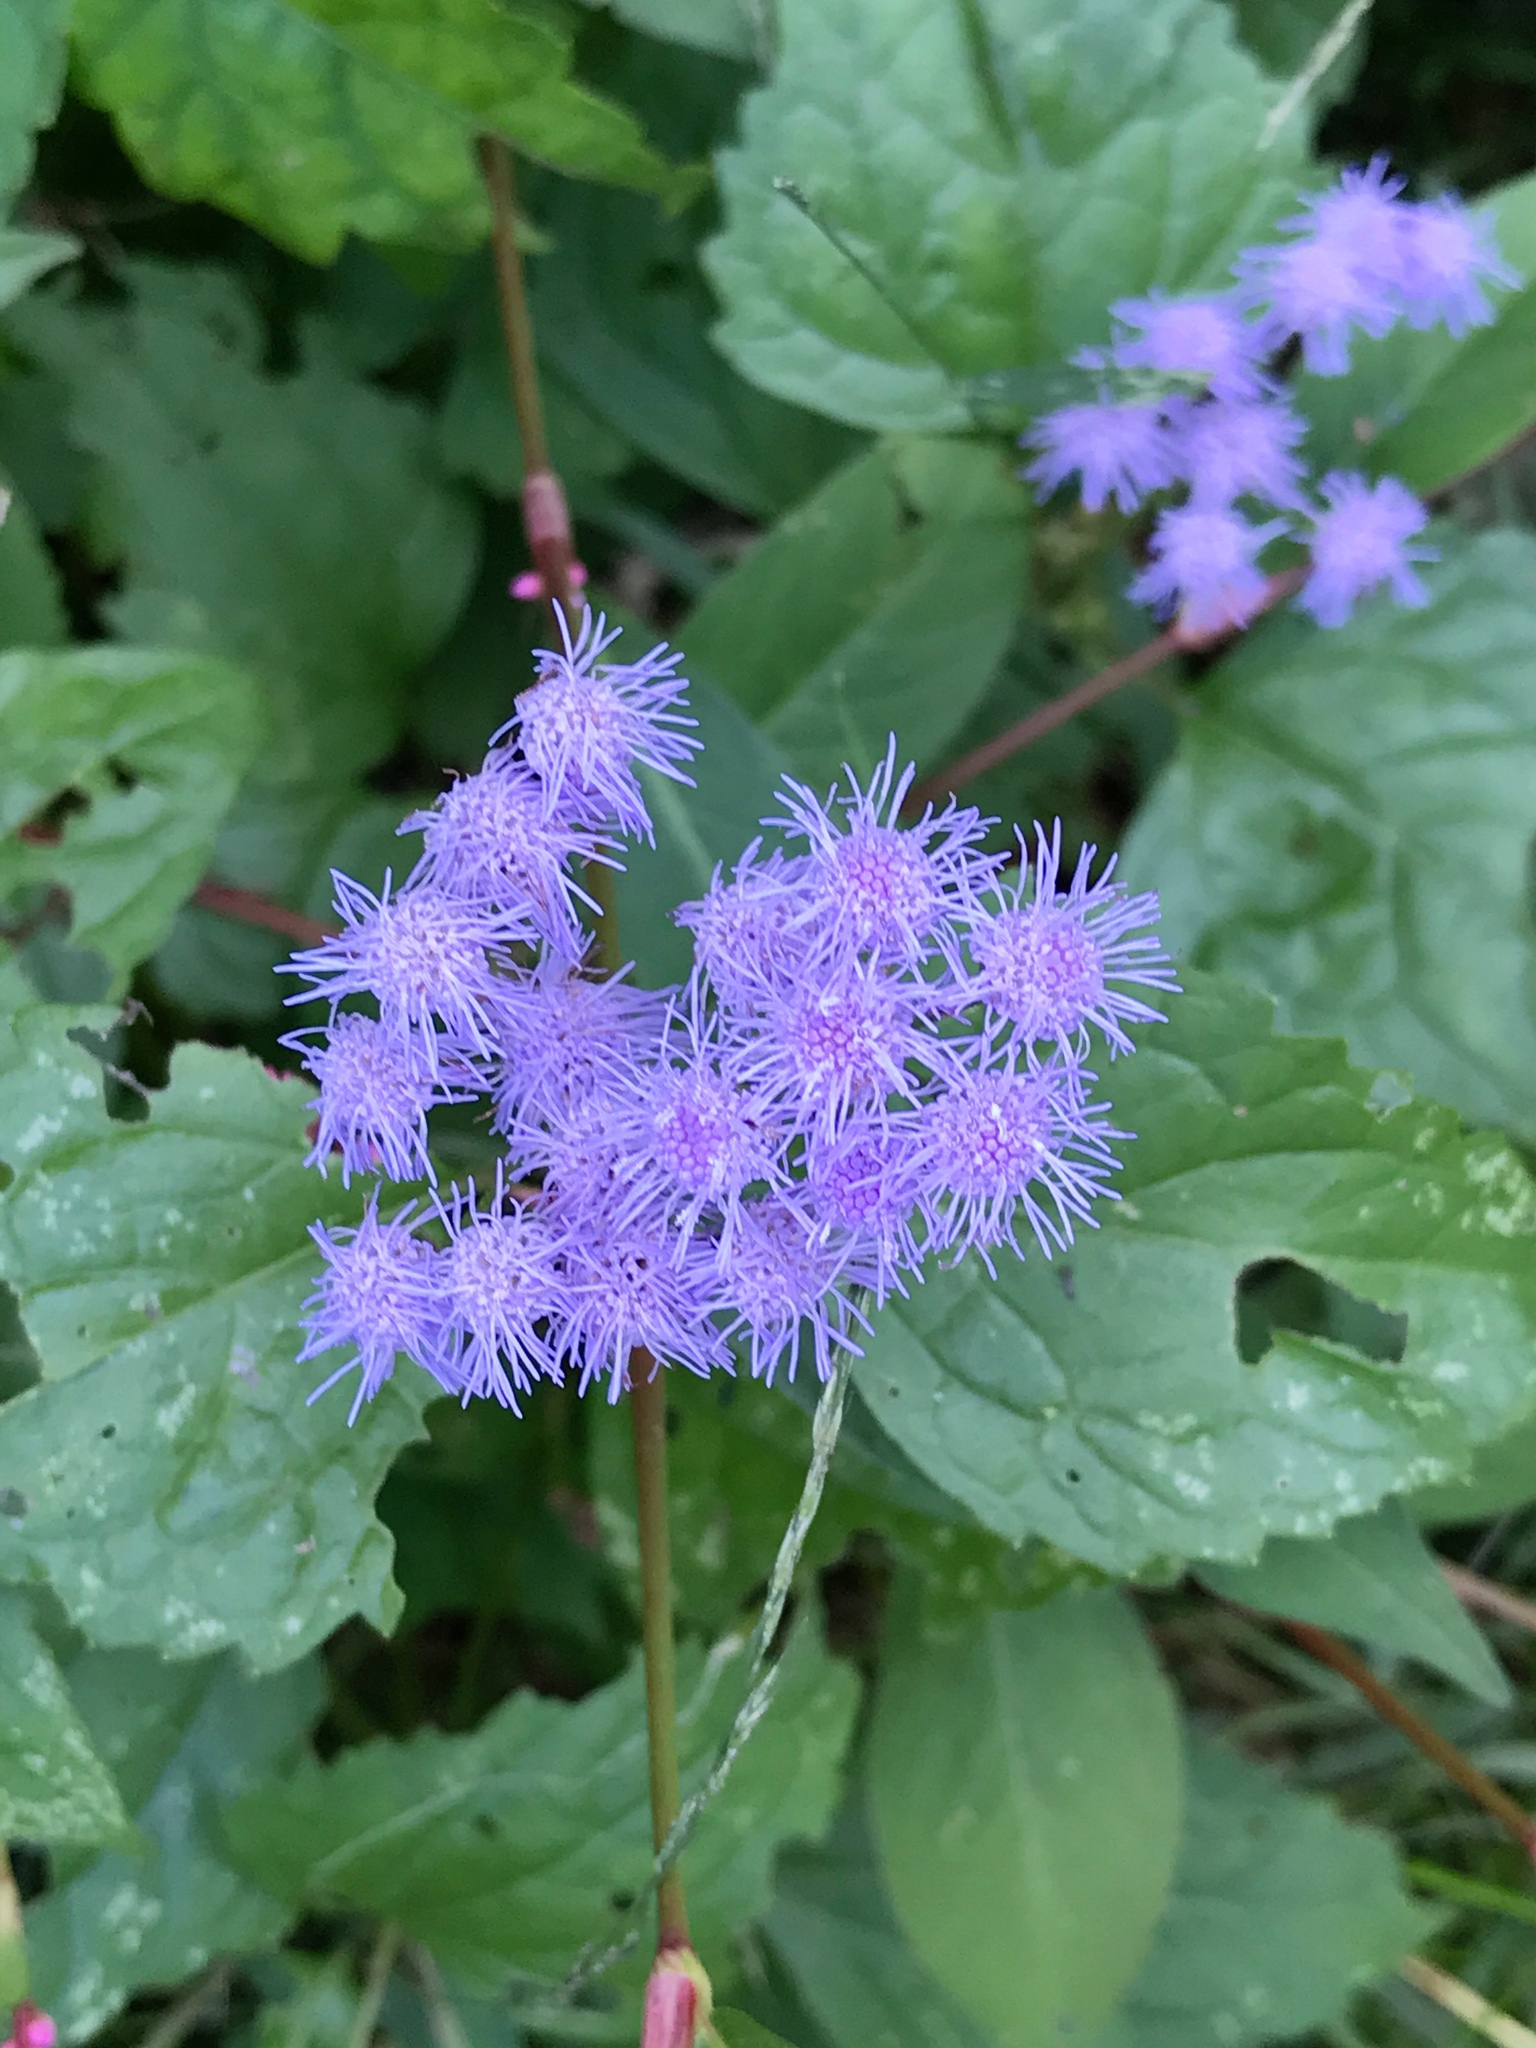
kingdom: Plantae
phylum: Tracheophyta
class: Magnoliopsida
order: Asterales
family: Asteraceae
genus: Conoclinium
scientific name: Conoclinium coelestinum
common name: Blue mistflower
